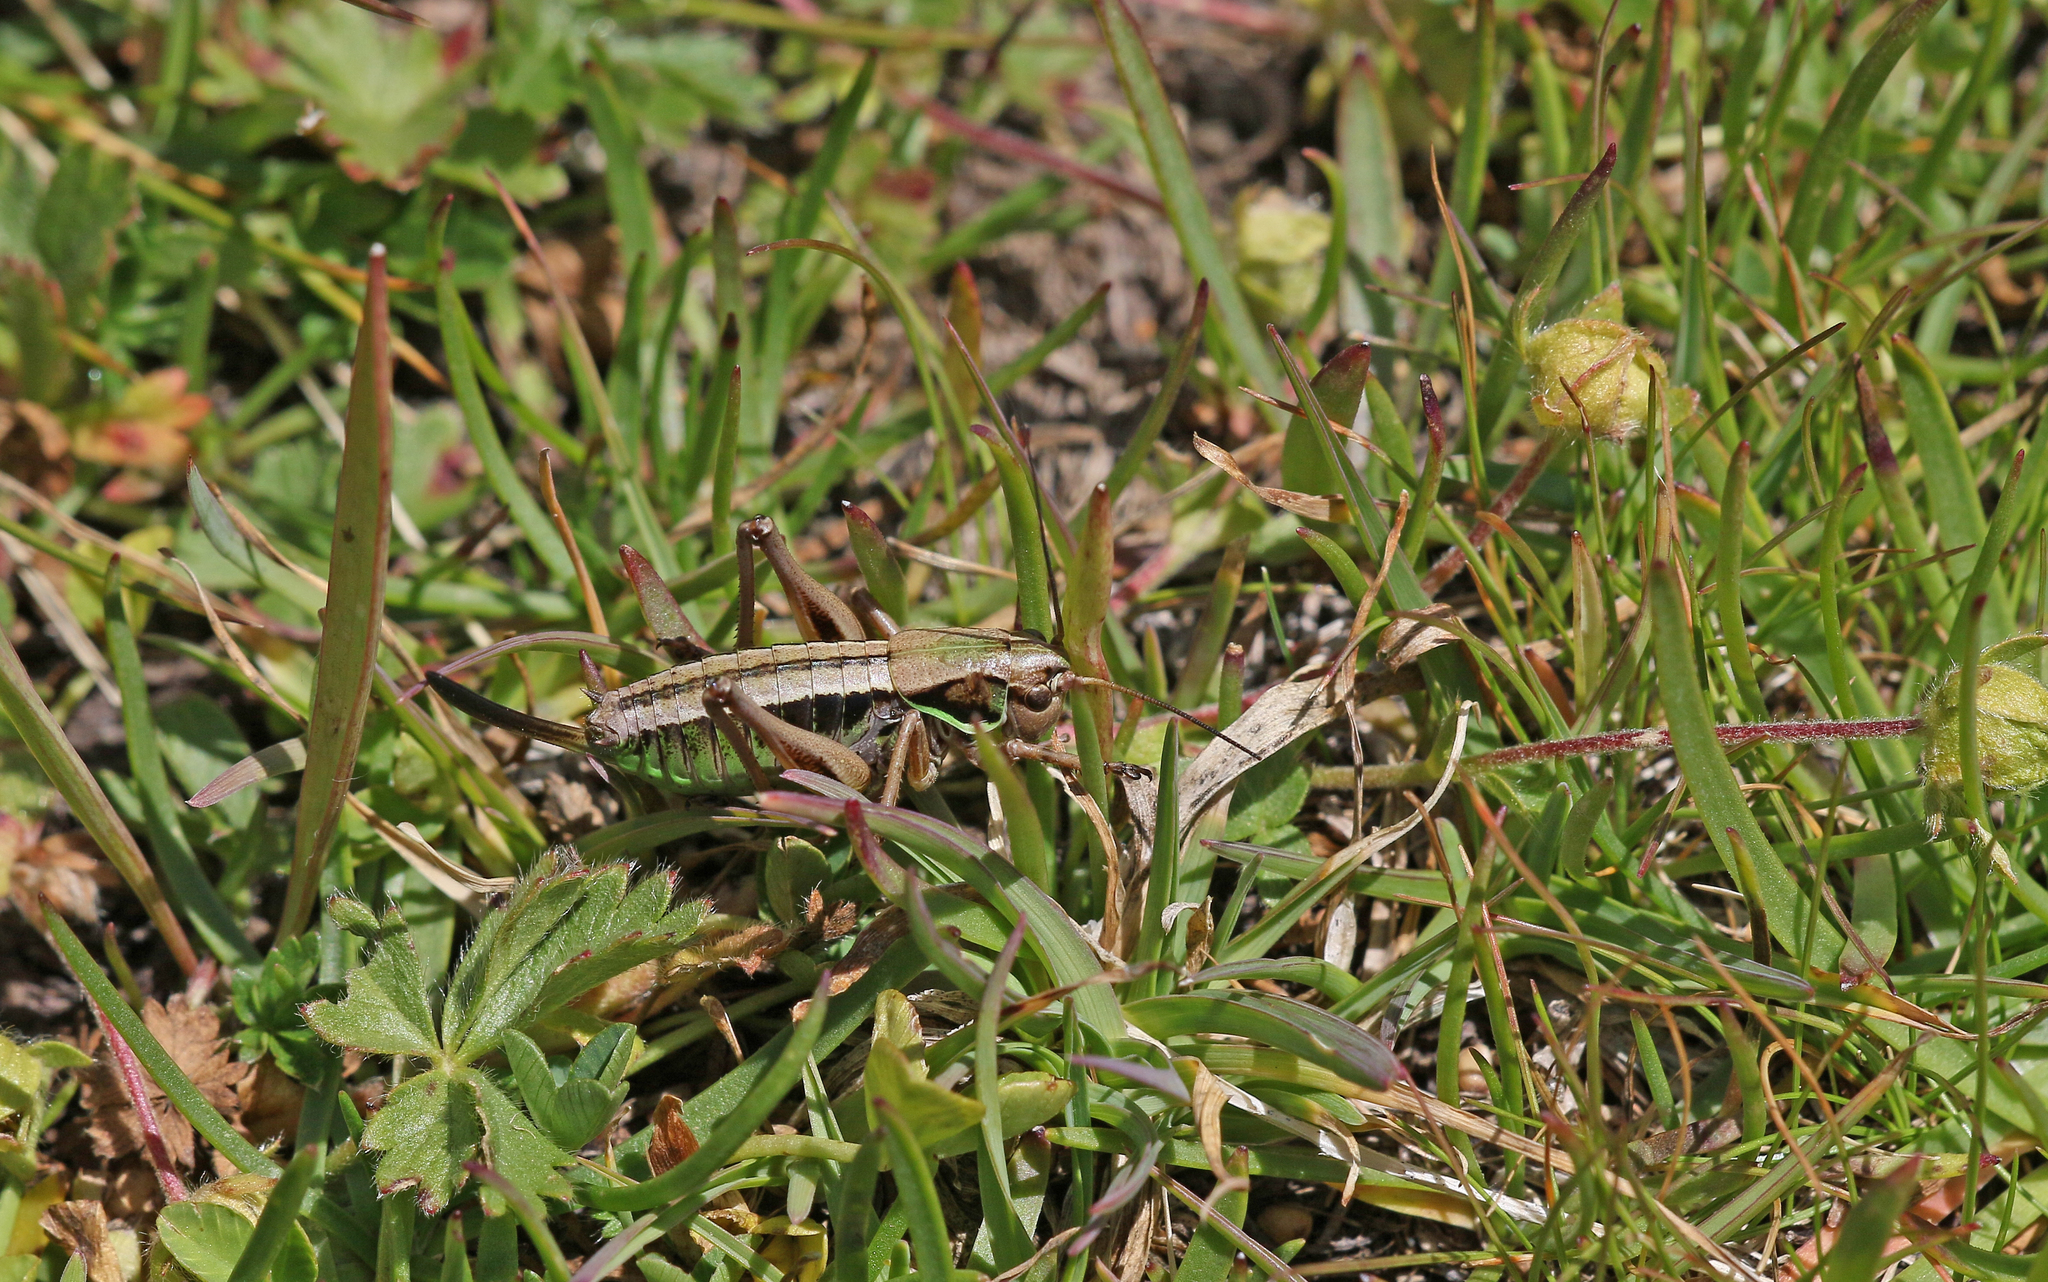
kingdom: Animalia
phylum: Arthropoda
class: Insecta
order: Orthoptera
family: Tettigoniidae
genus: Anonconotus
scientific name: Anonconotus occidentalis
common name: Western alpine bush-cricket
